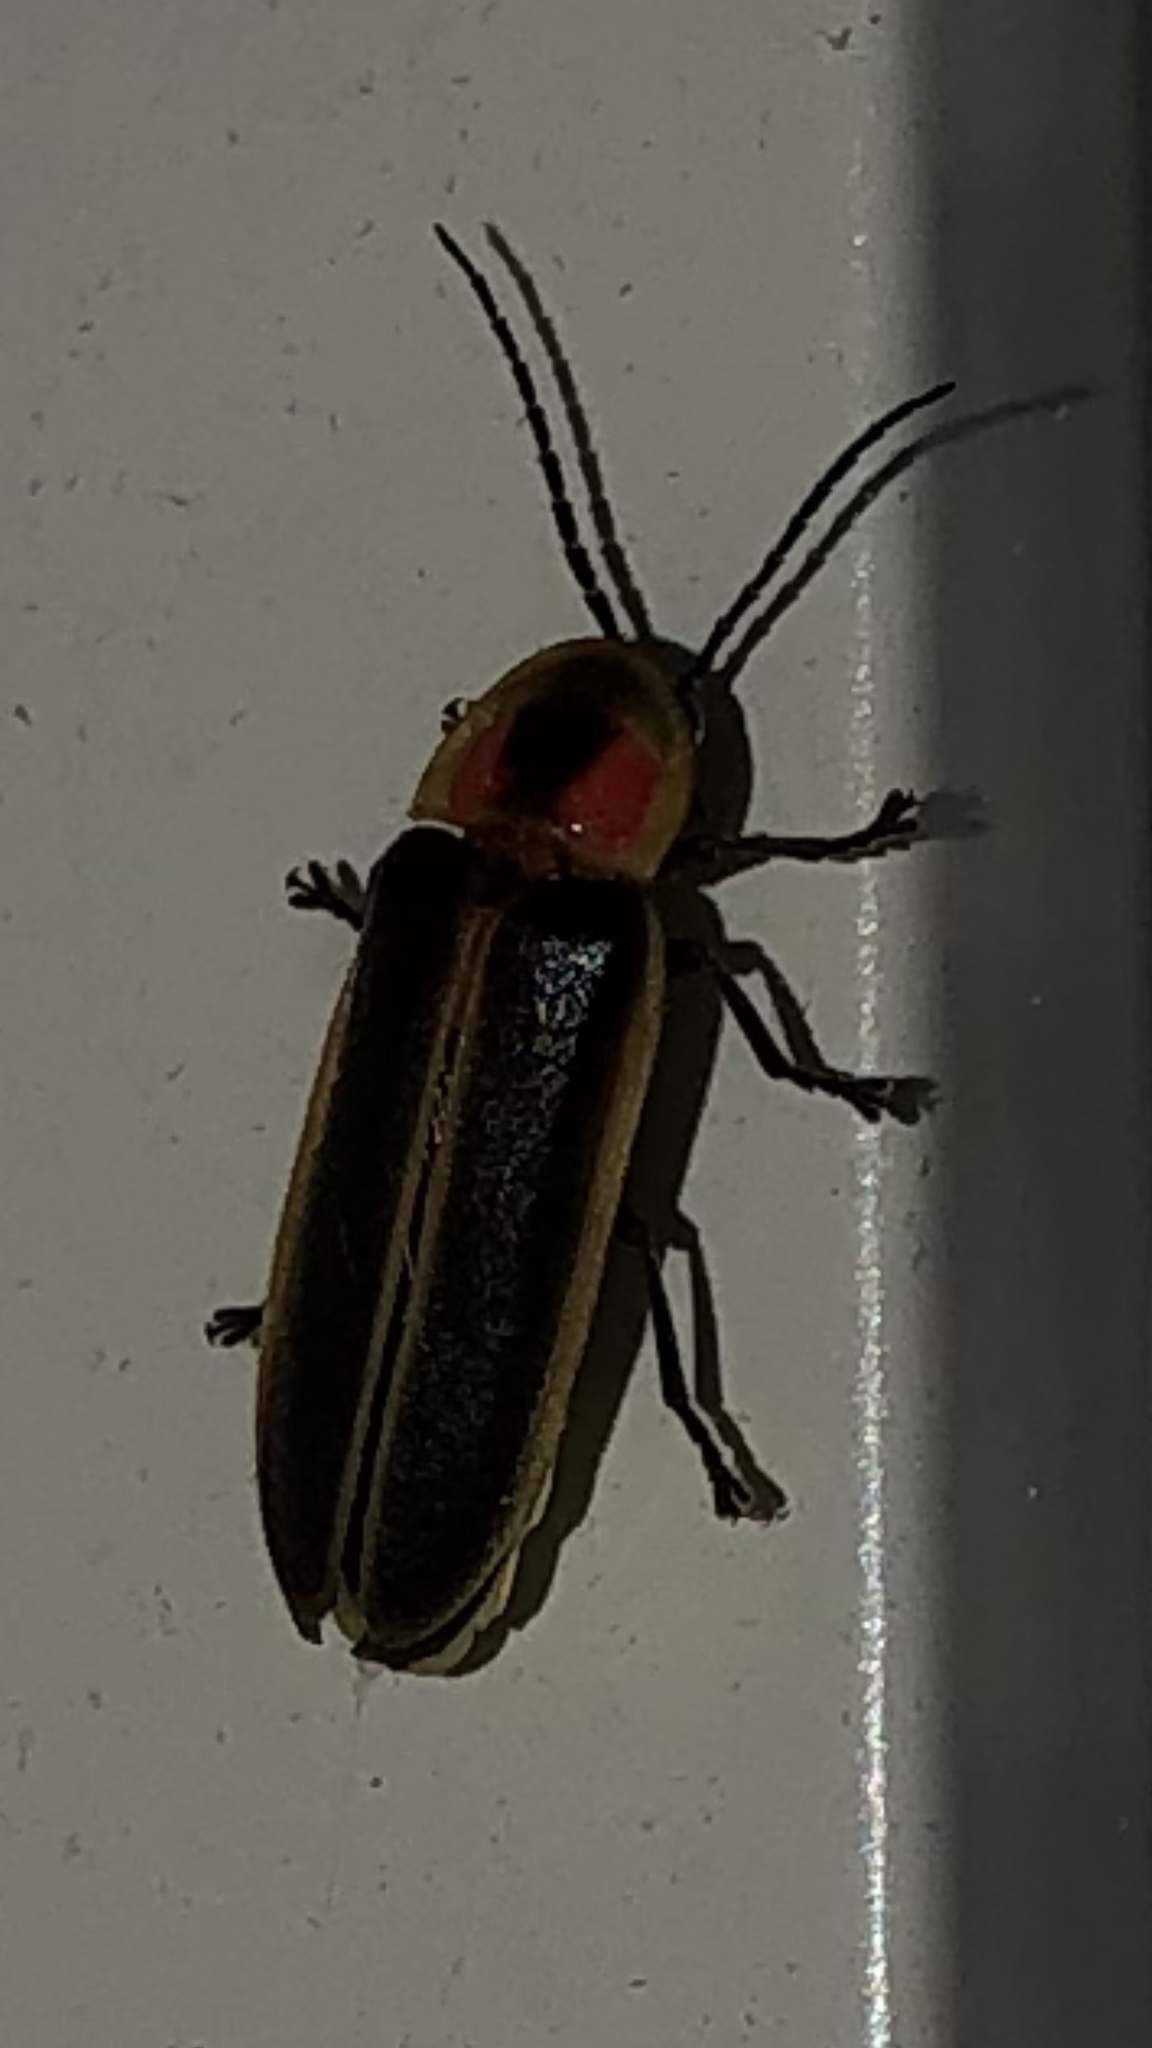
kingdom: Animalia
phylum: Arthropoda
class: Insecta
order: Coleoptera
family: Lampyridae
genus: Photinus
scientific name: Photinus pyralis
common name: Big dipper firefly
